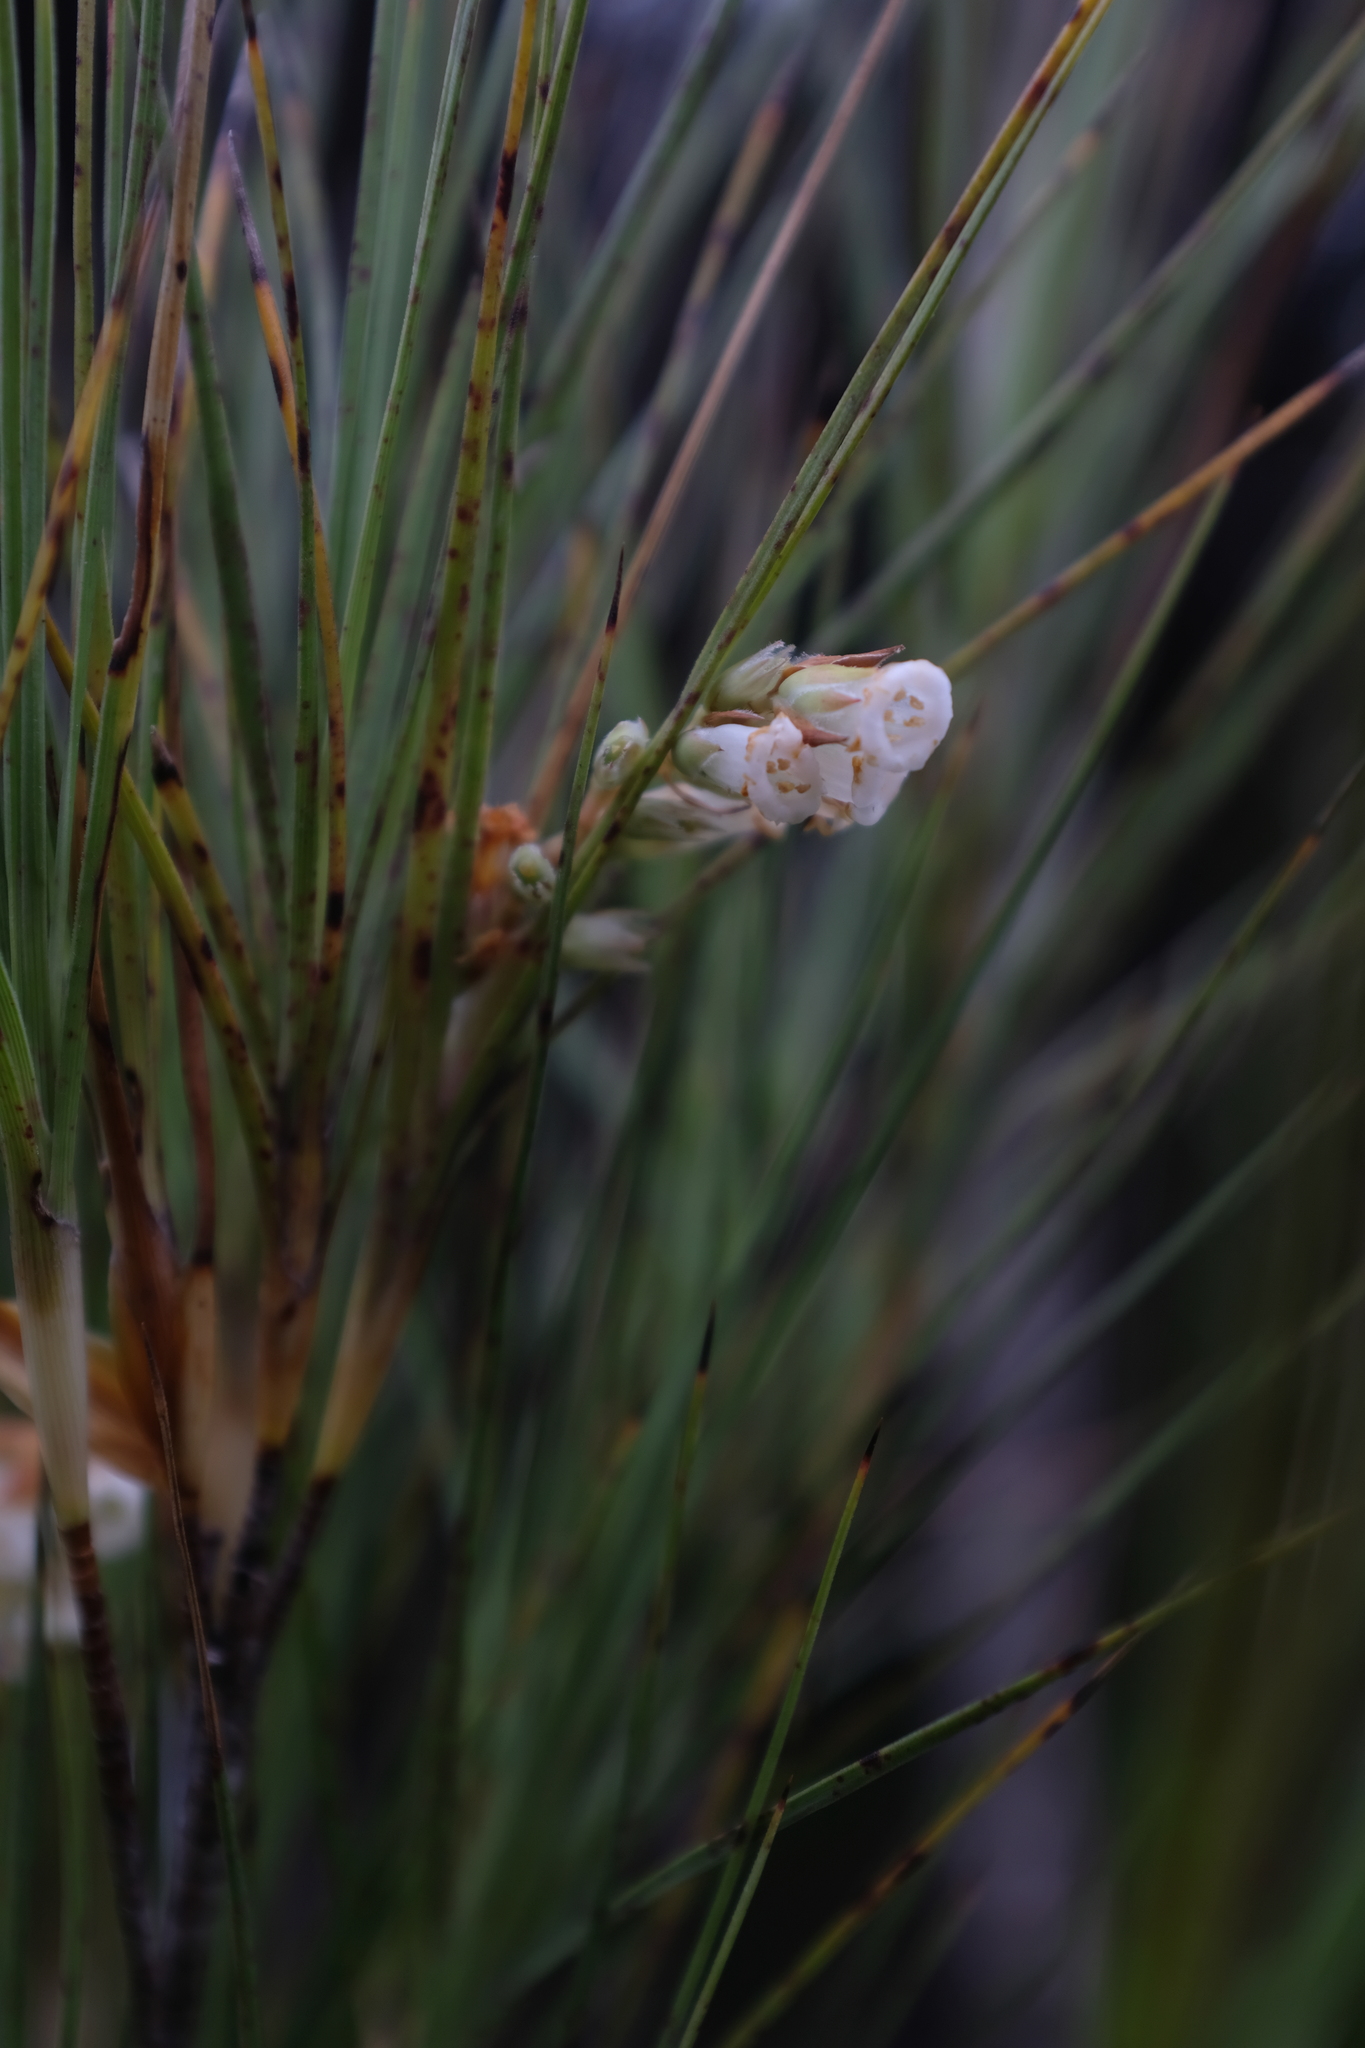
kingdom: Plantae
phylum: Tracheophyta
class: Magnoliopsida
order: Ericales
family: Ericaceae
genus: Dracophyllum
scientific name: Dracophyllum longifolium
